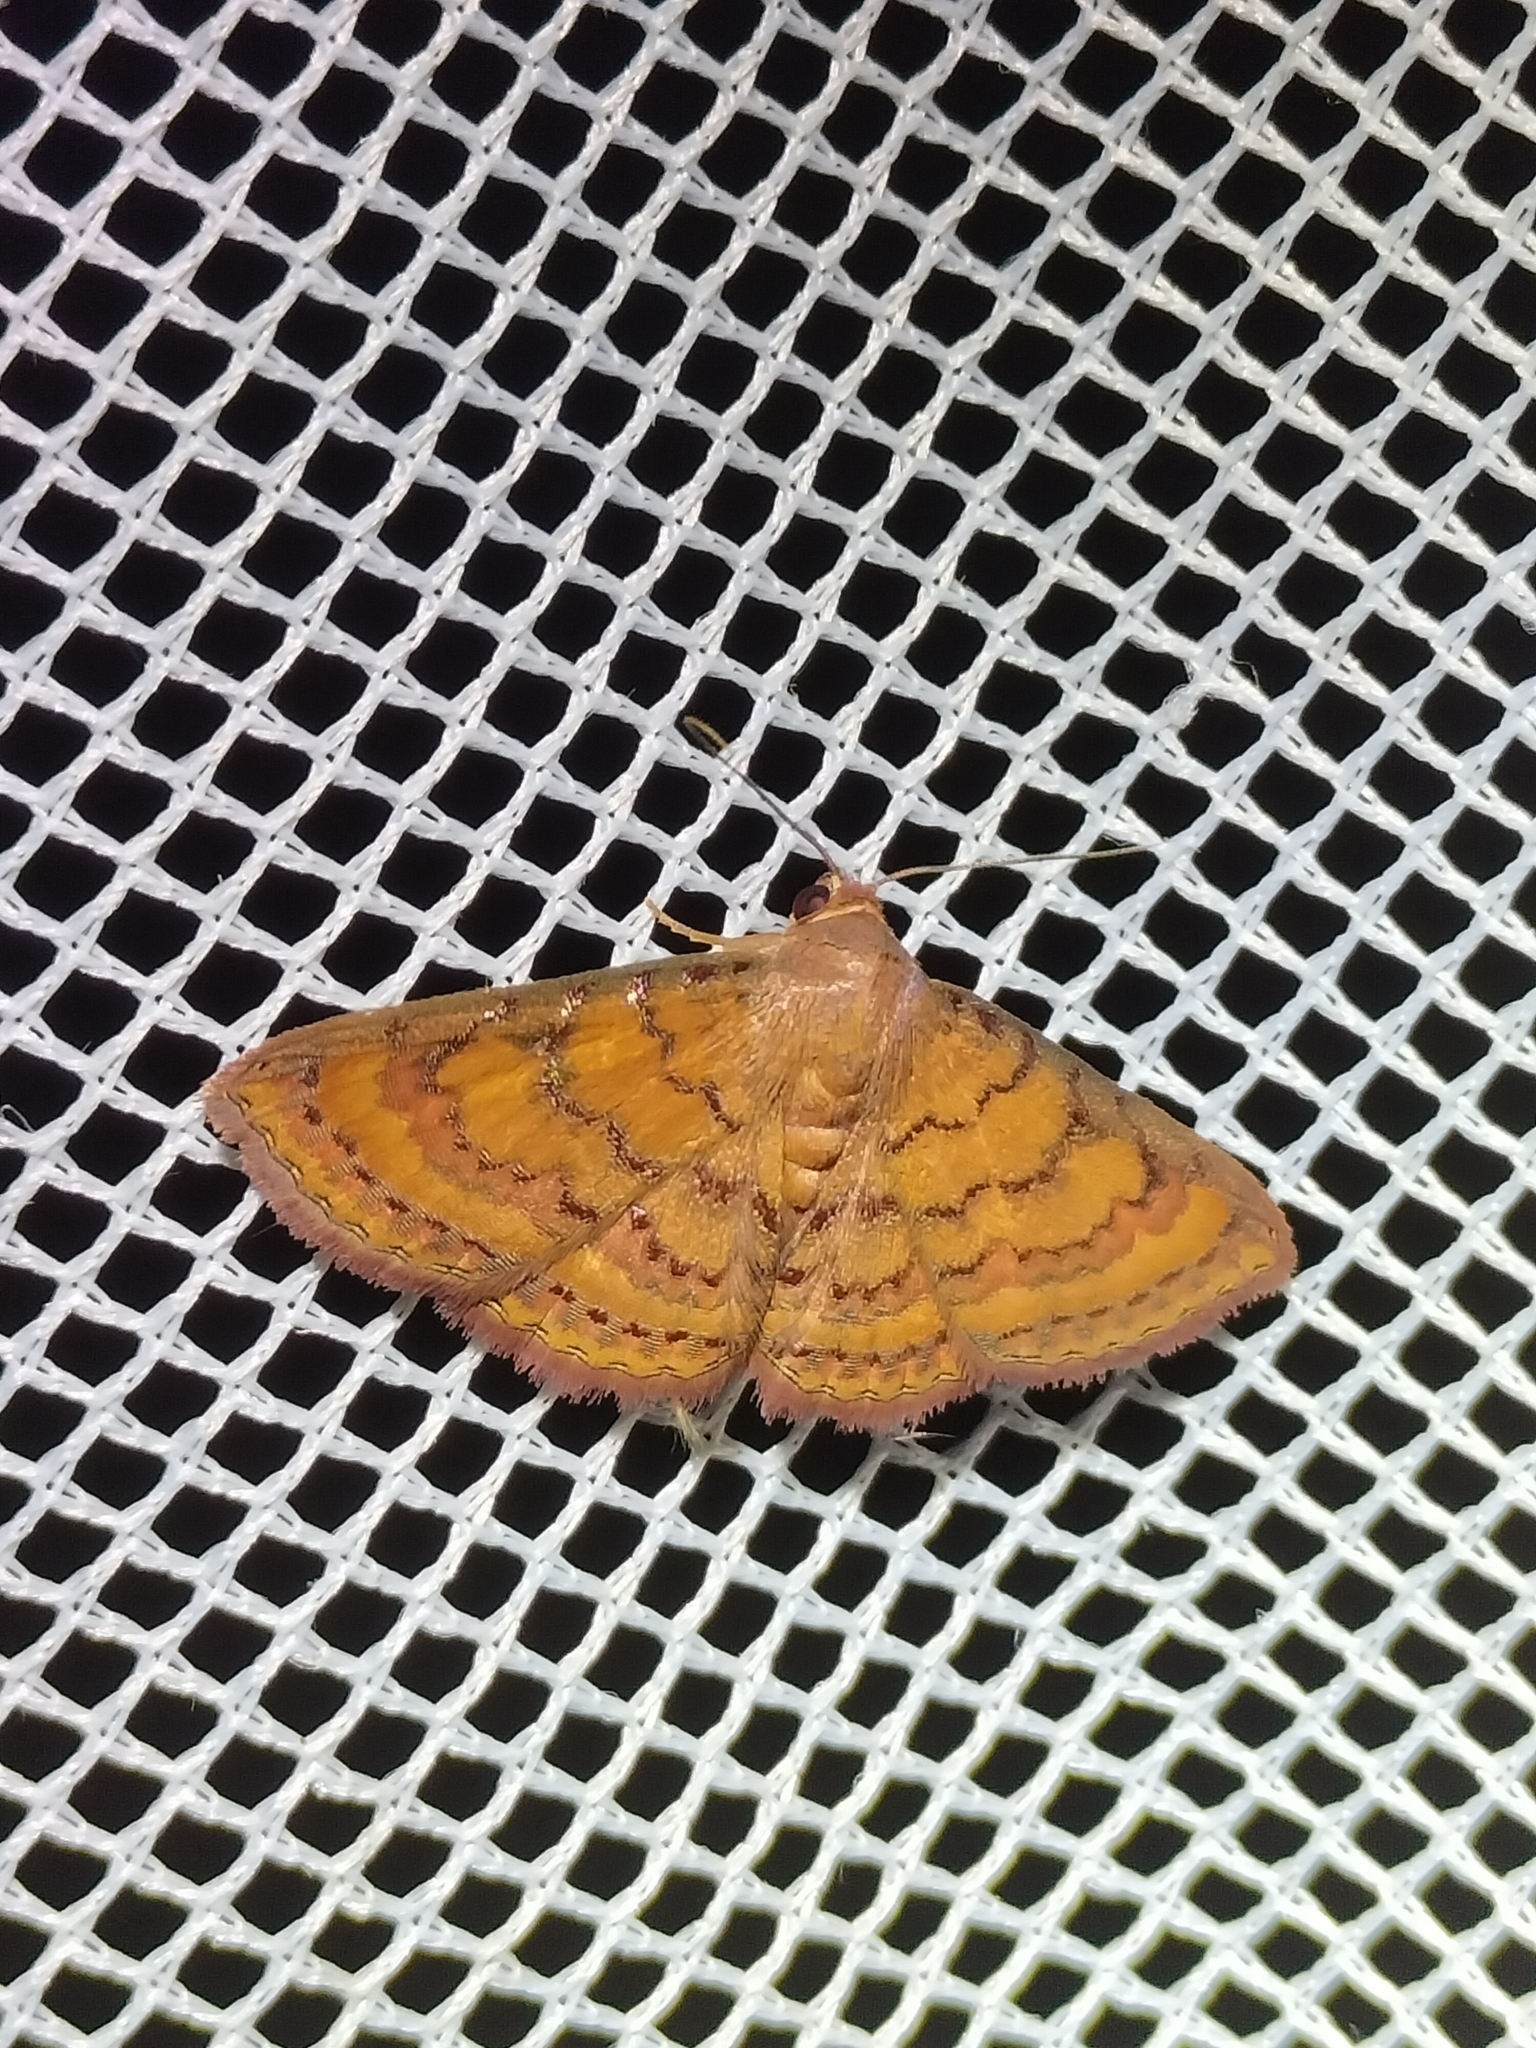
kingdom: Animalia
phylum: Arthropoda
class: Insecta
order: Lepidoptera
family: Erebidae
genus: Homodes
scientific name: Homodes iomolybda
